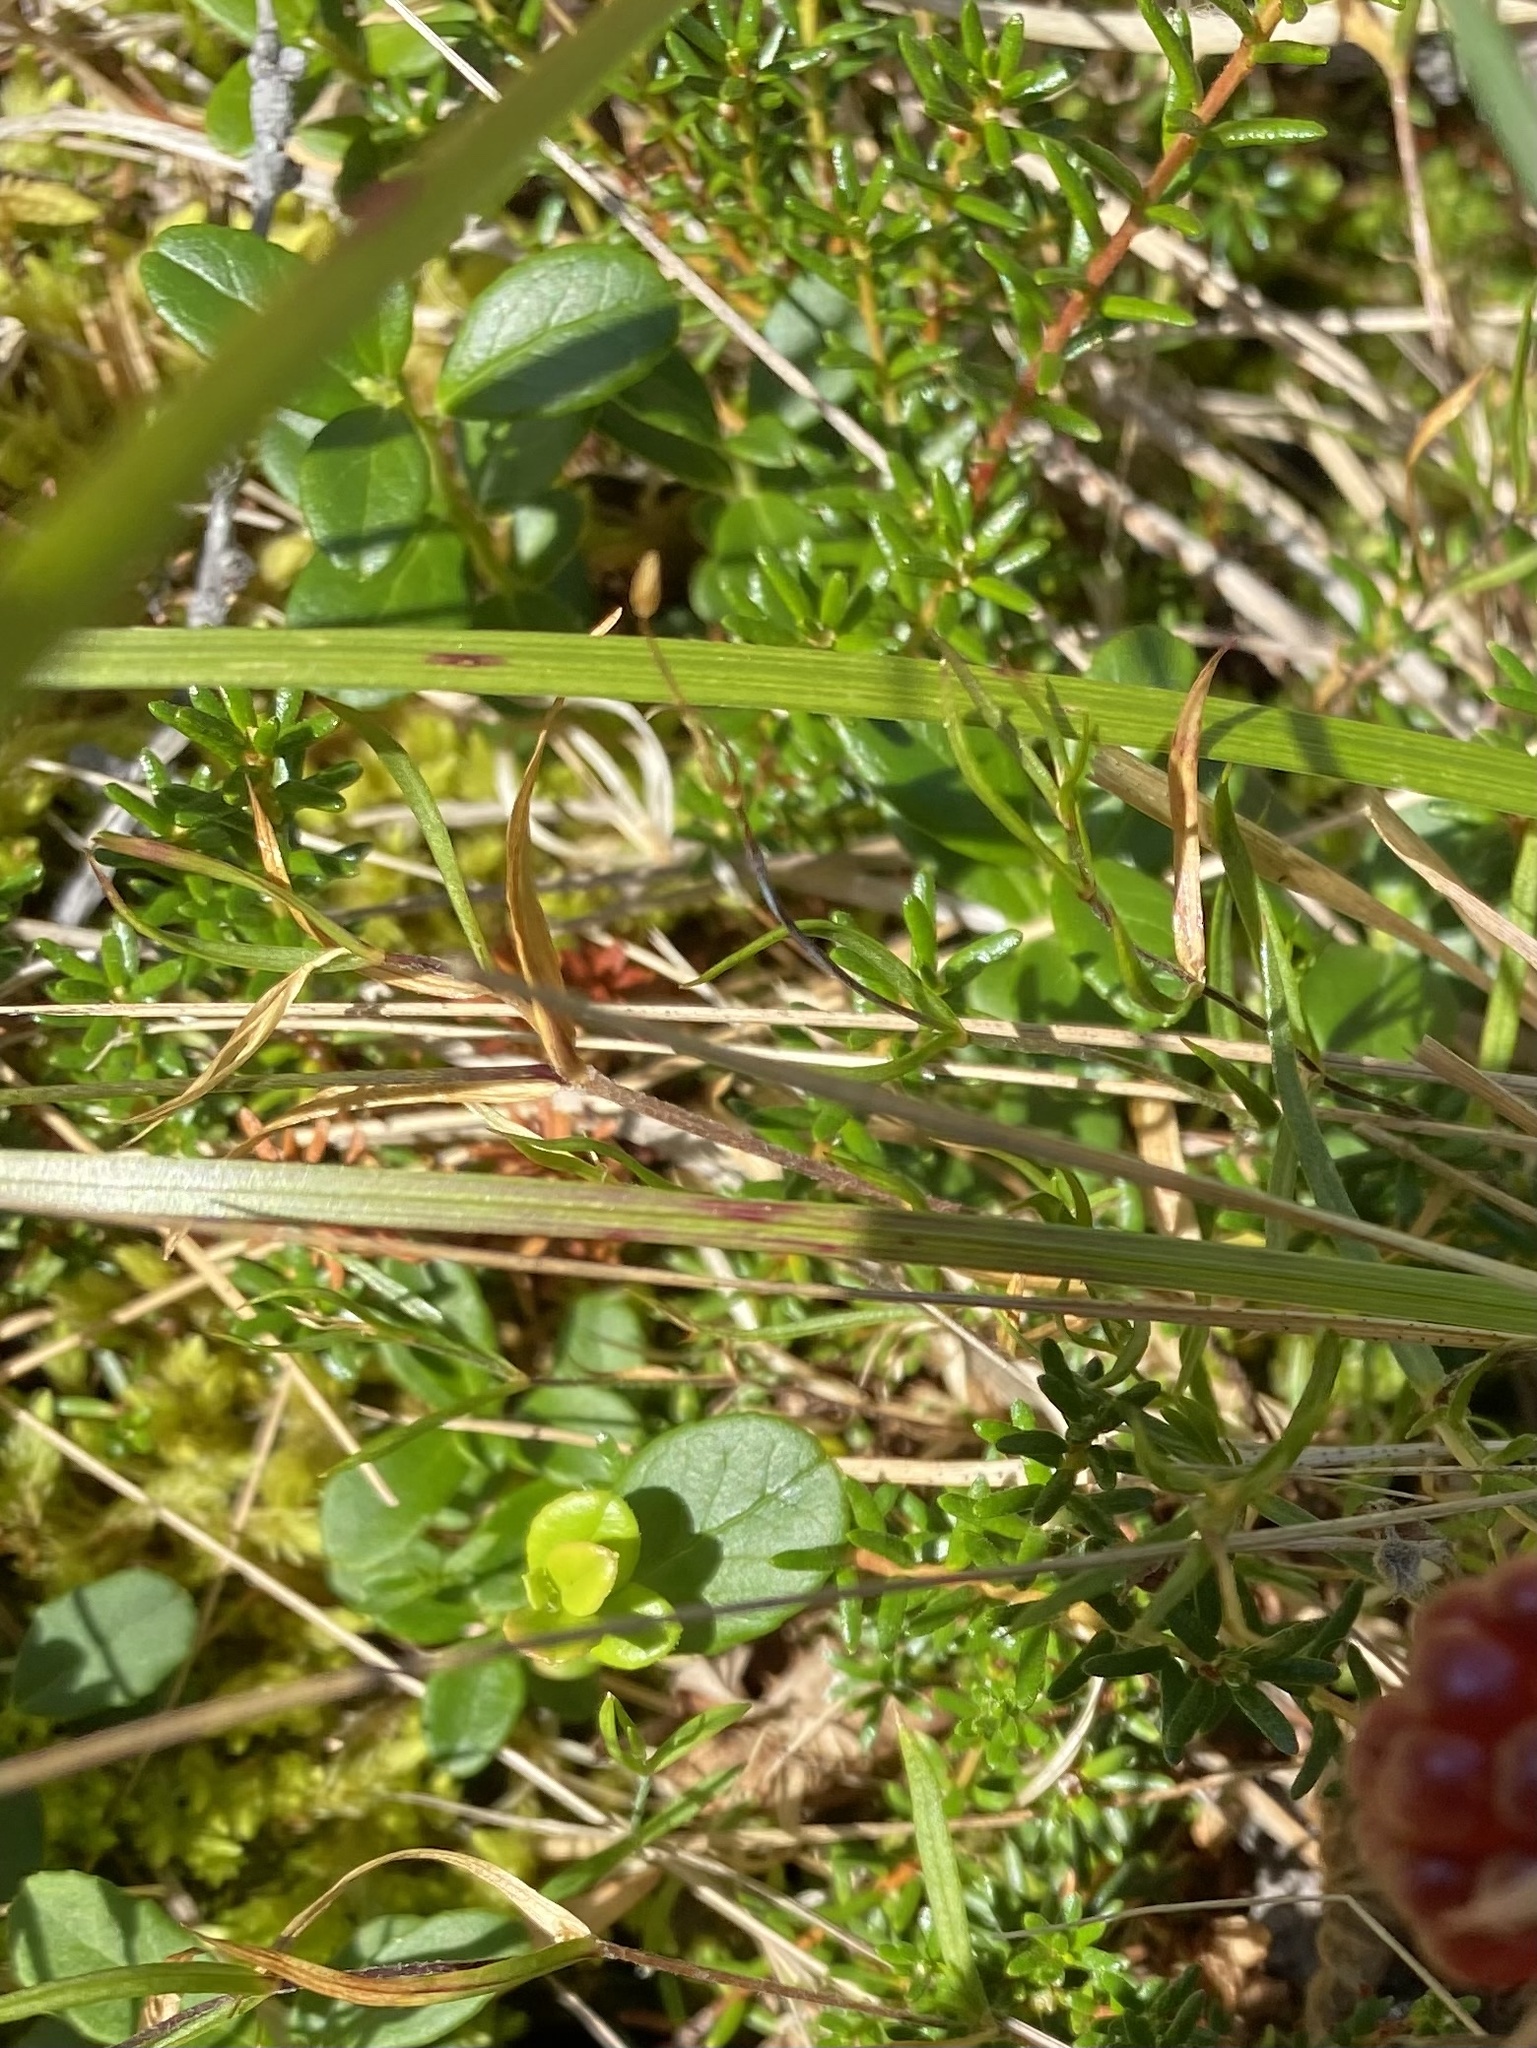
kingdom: Plantae
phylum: Tracheophyta
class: Magnoliopsida
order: Ericales
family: Ericaceae
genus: Vaccinium
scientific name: Vaccinium vitis-idaea
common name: Cowberry
